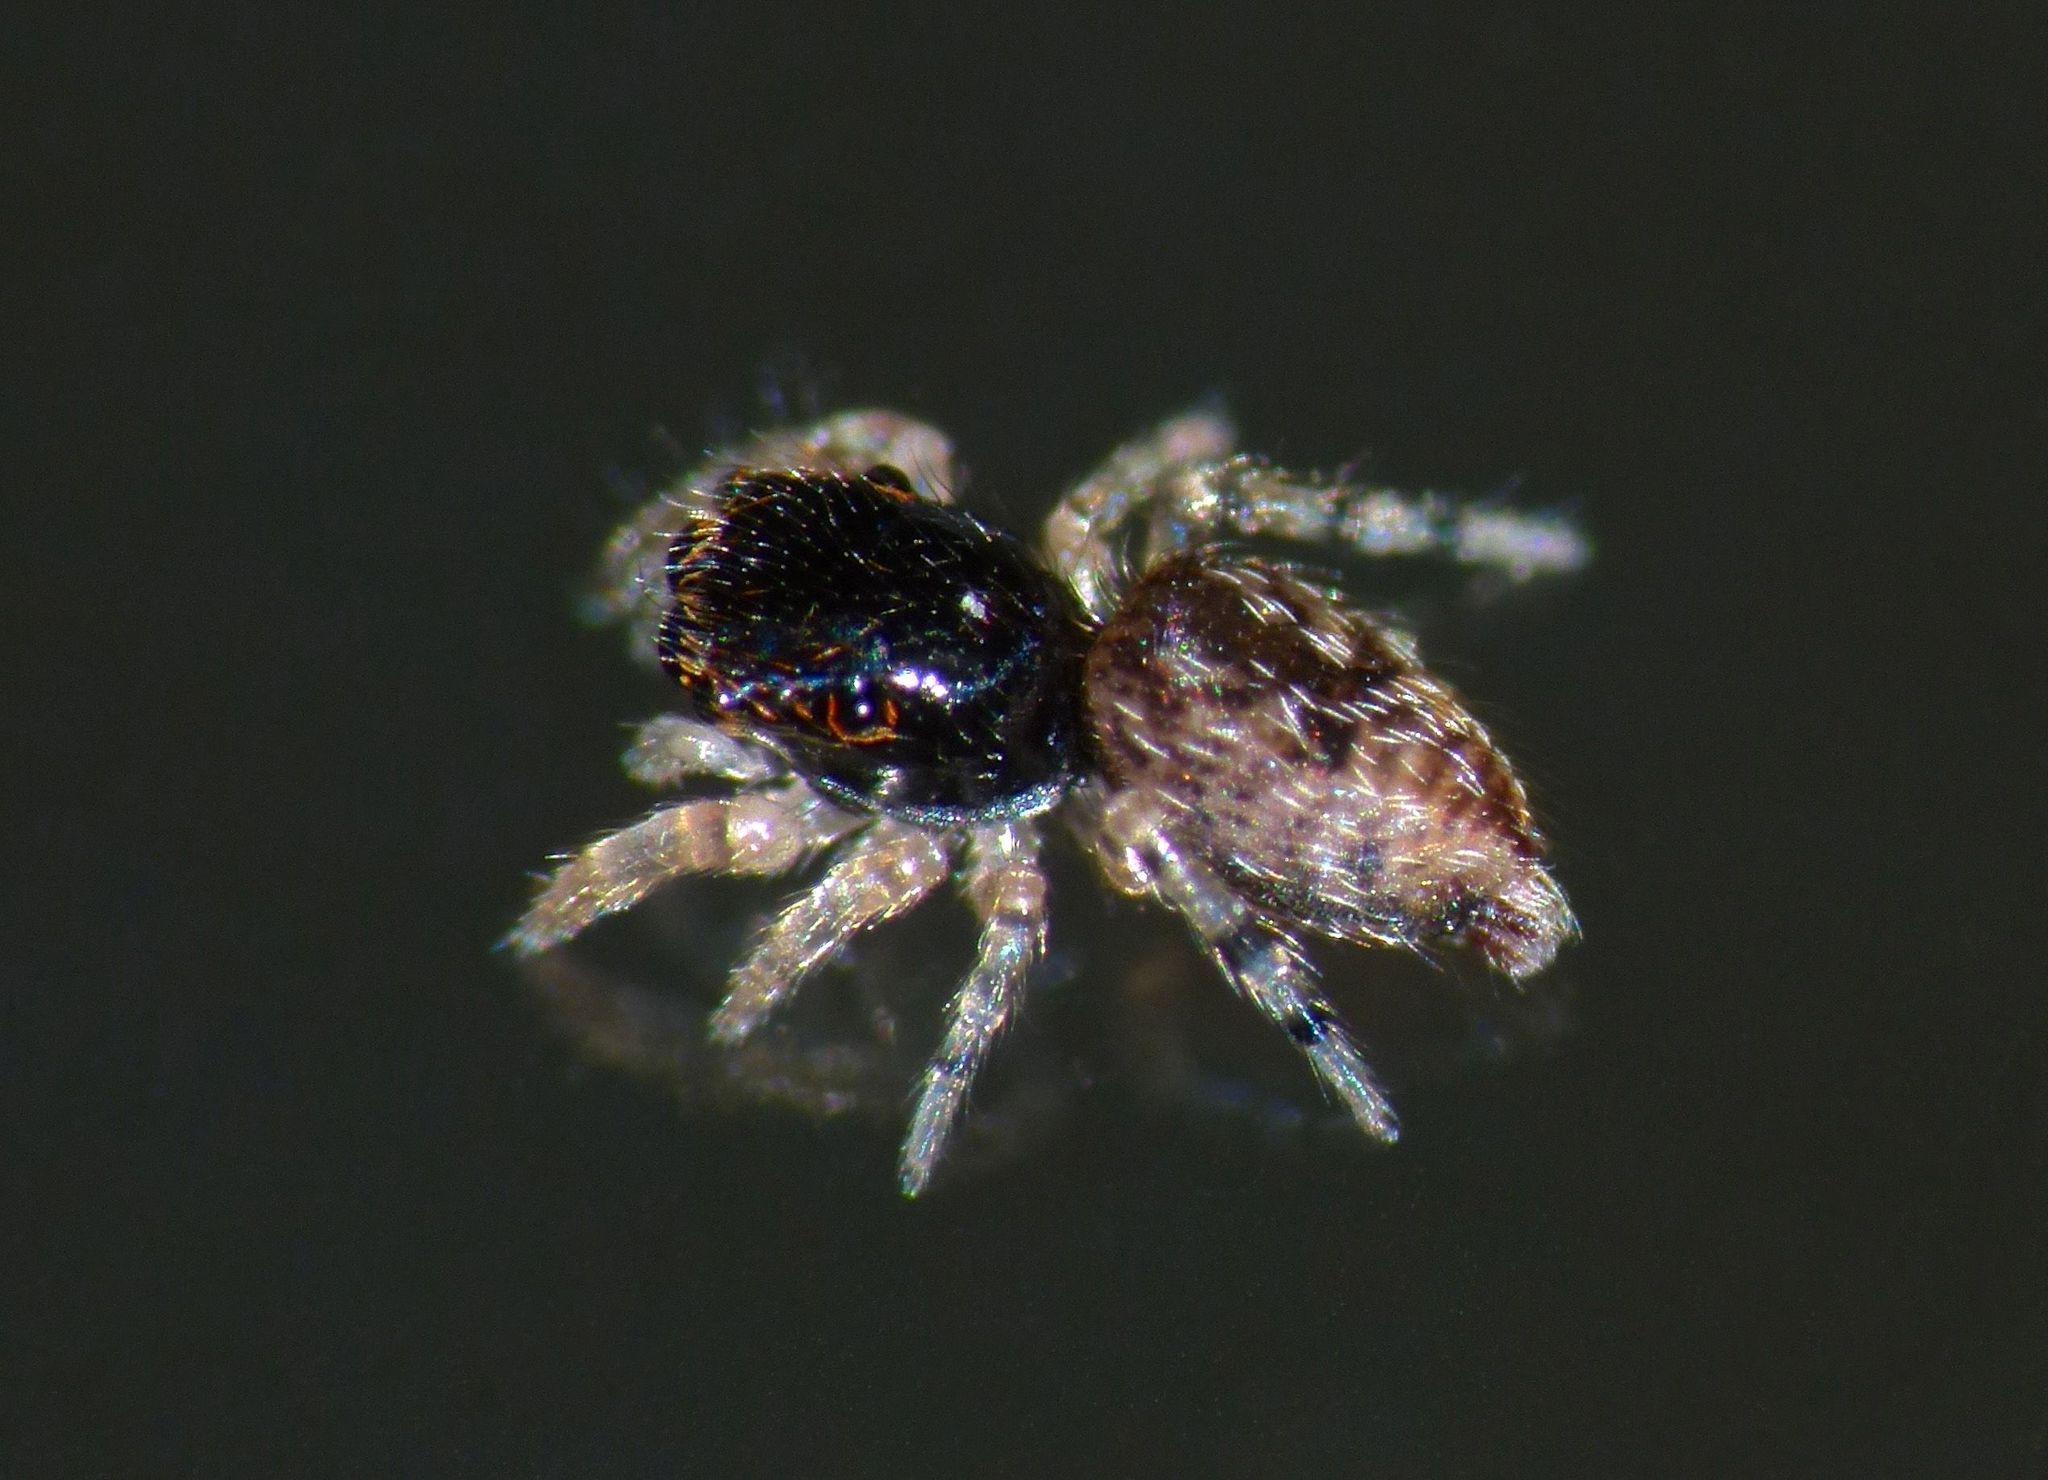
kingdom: Animalia
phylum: Arthropoda
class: Arachnida
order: Araneae
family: Salticidae
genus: Trite
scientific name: Trite auricoma
